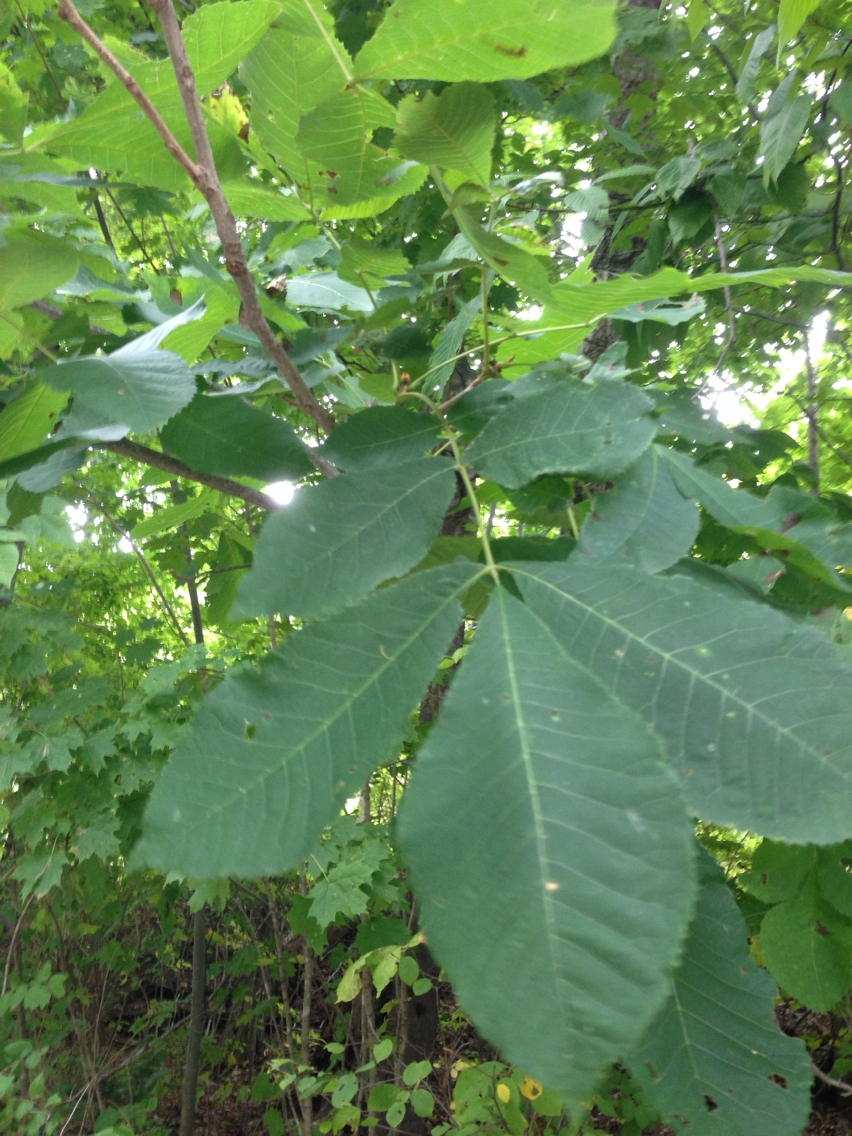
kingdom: Plantae
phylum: Tracheophyta
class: Magnoliopsida
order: Fagales
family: Juglandaceae
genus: Carya
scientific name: Carya cordiformis
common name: Bitternut hickory
